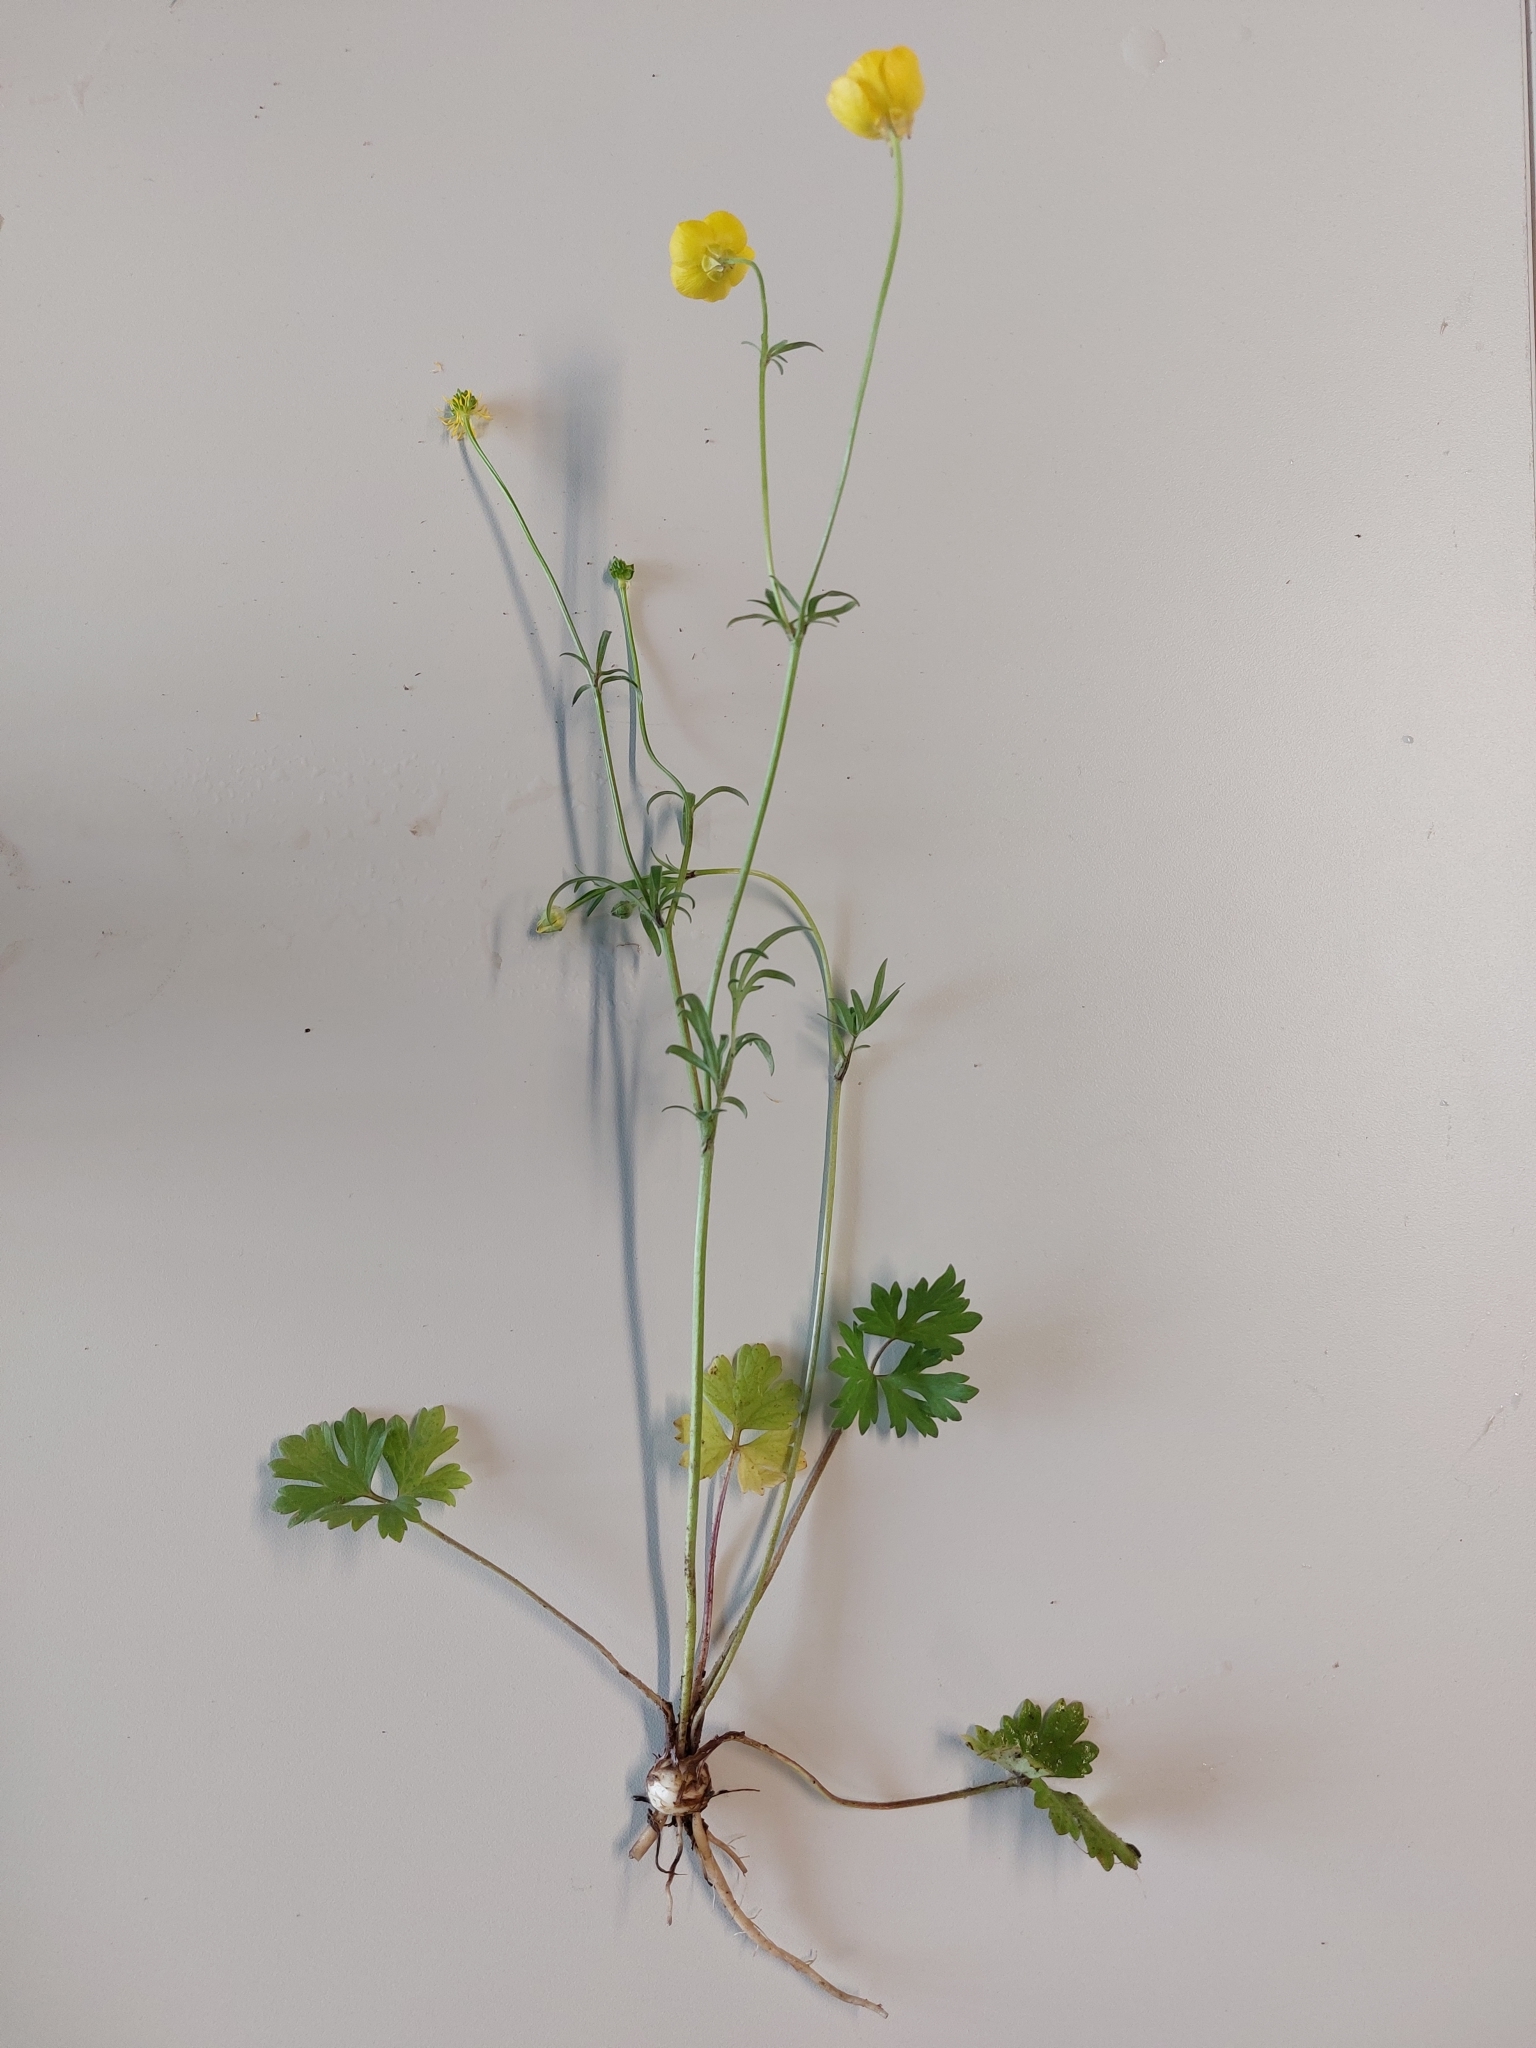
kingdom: Plantae
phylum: Tracheophyta
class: Magnoliopsida
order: Ranunculales
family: Ranunculaceae
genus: Ranunculus
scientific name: Ranunculus bulbosus
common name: Bulbous buttercup
